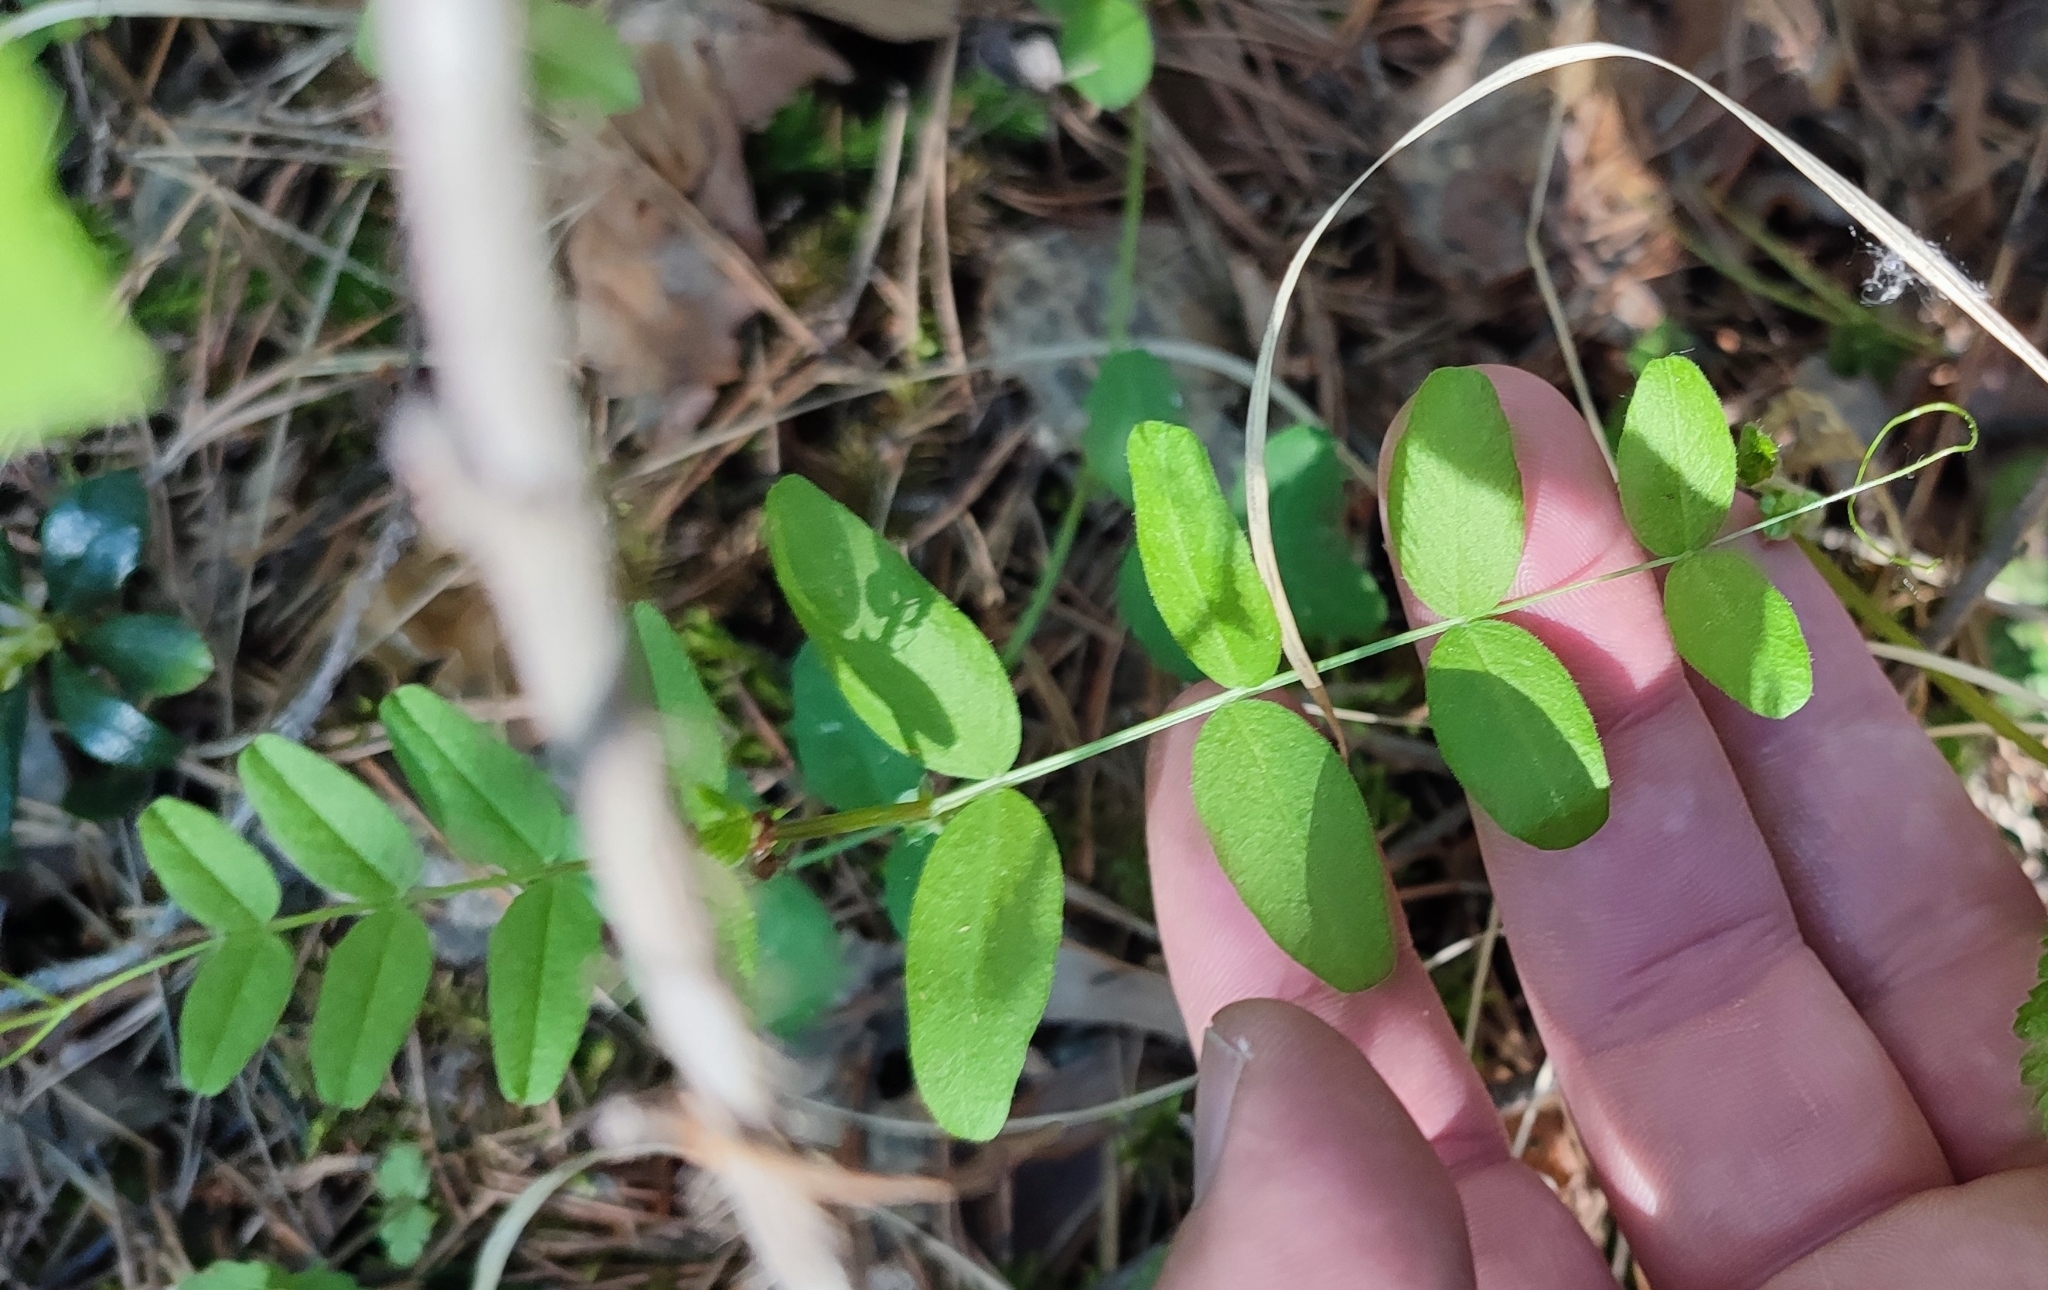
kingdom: Plantae
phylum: Tracheophyta
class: Magnoliopsida
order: Fabales
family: Fabaceae
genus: Vicia
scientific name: Vicia sepium
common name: Bush vetch
